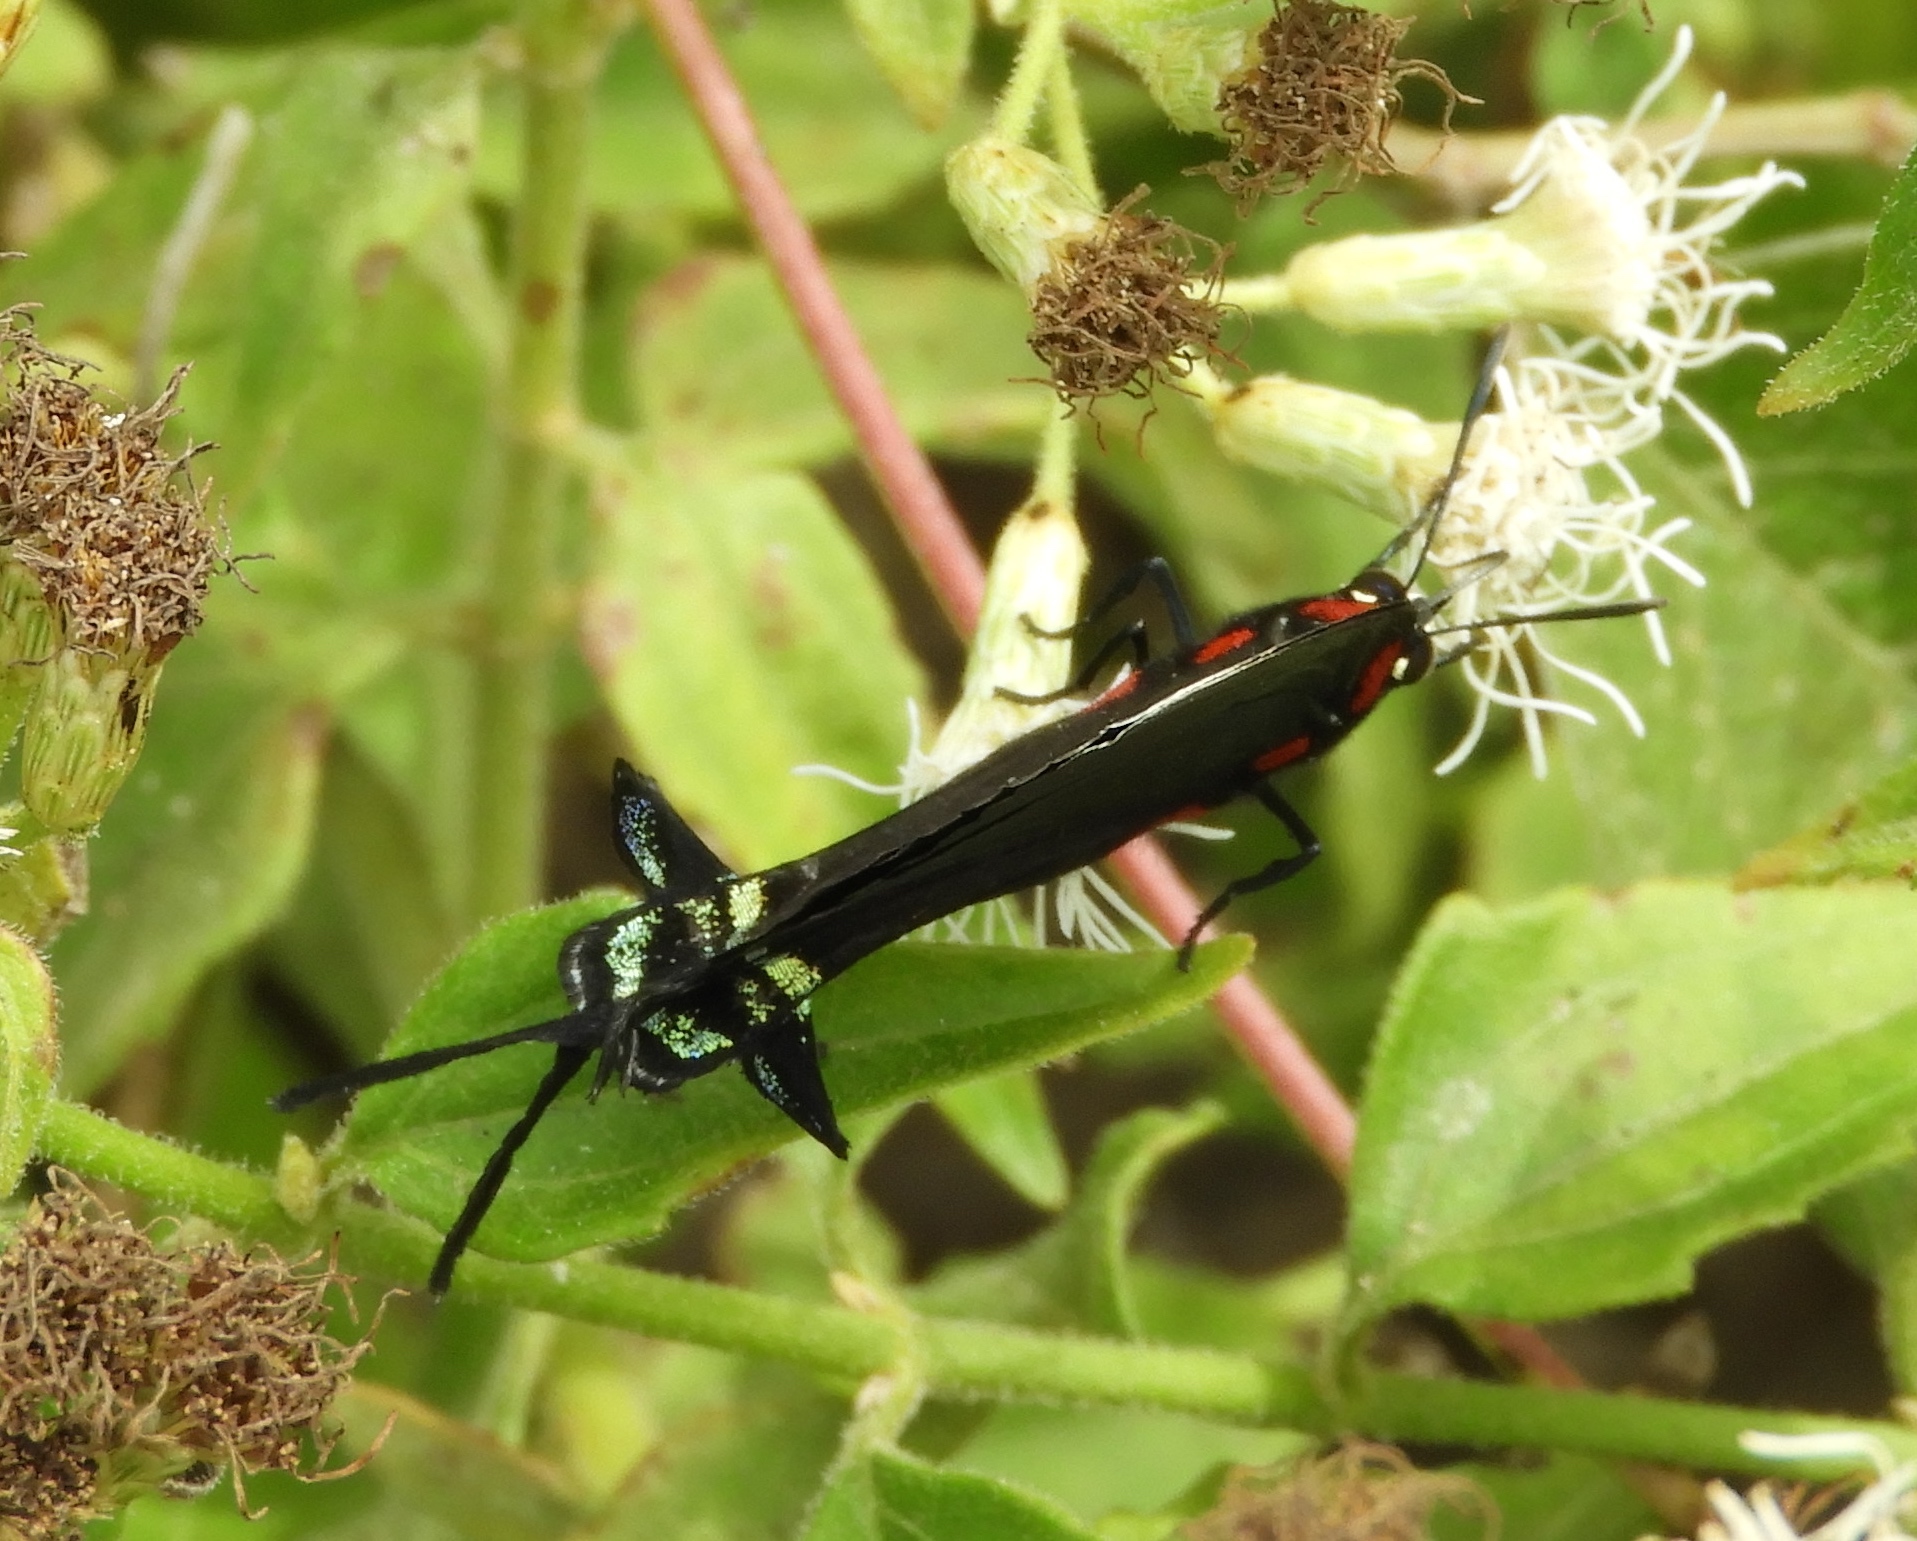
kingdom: Animalia
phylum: Arthropoda
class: Insecta
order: Lepidoptera
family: Lycaenidae
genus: Atlides
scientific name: Atlides halesus
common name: Great purple hairstreak
